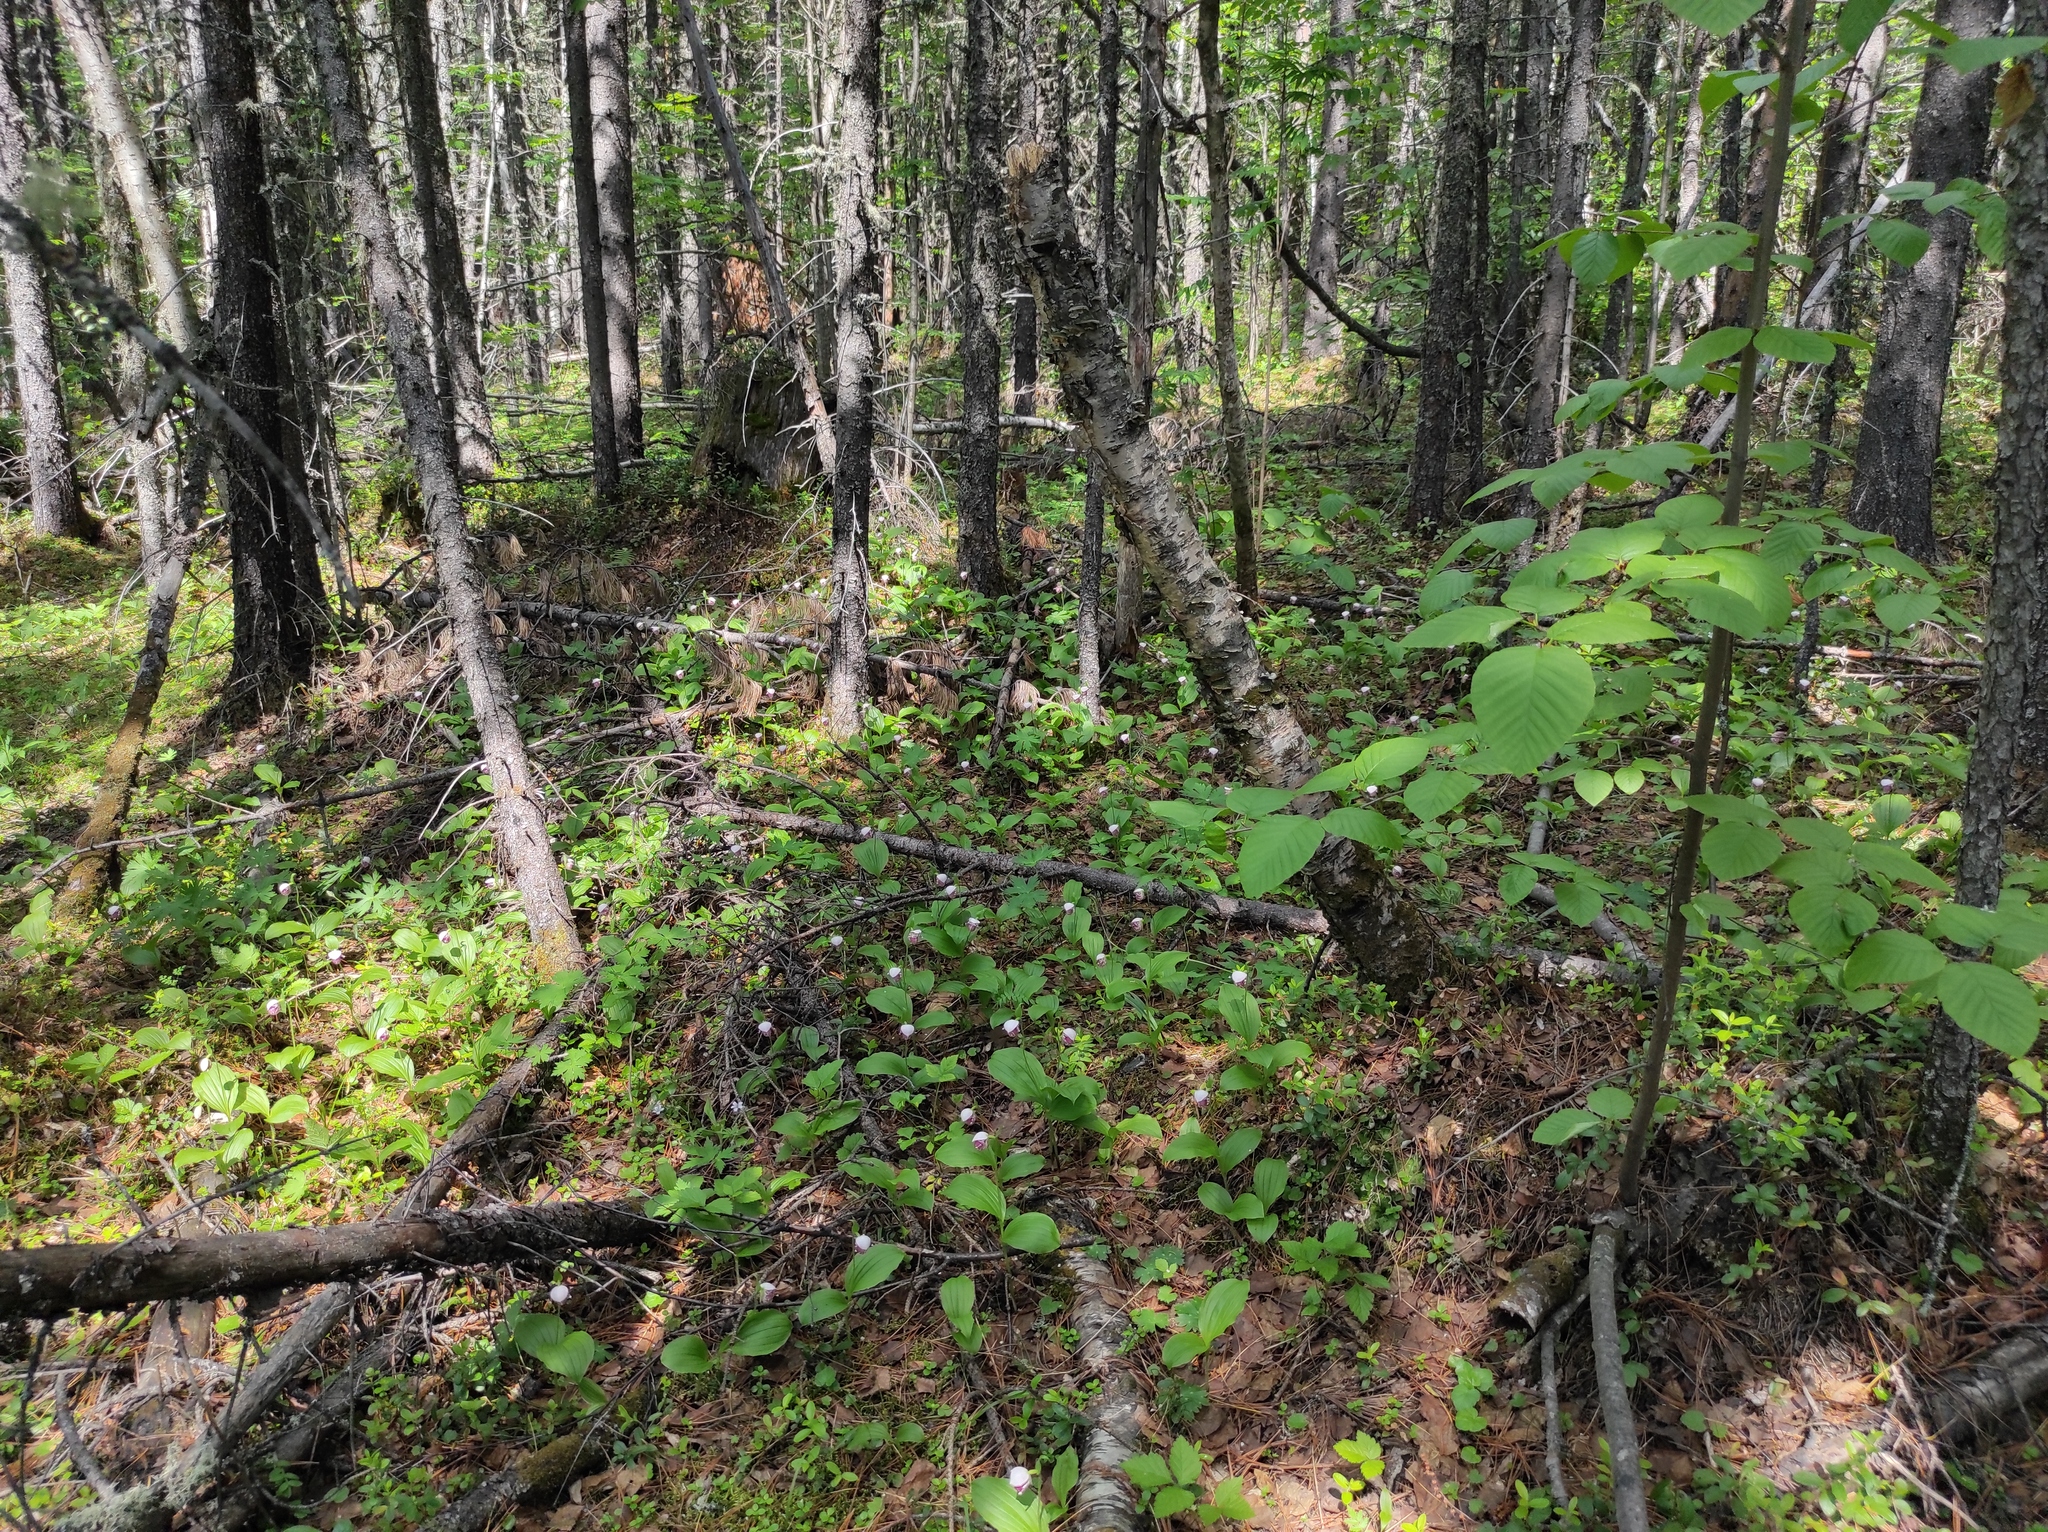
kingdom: Plantae
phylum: Tracheophyta
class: Pinopsida
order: Pinales
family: Pinaceae
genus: Picea
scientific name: Picea obovata
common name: Siberian spruce
